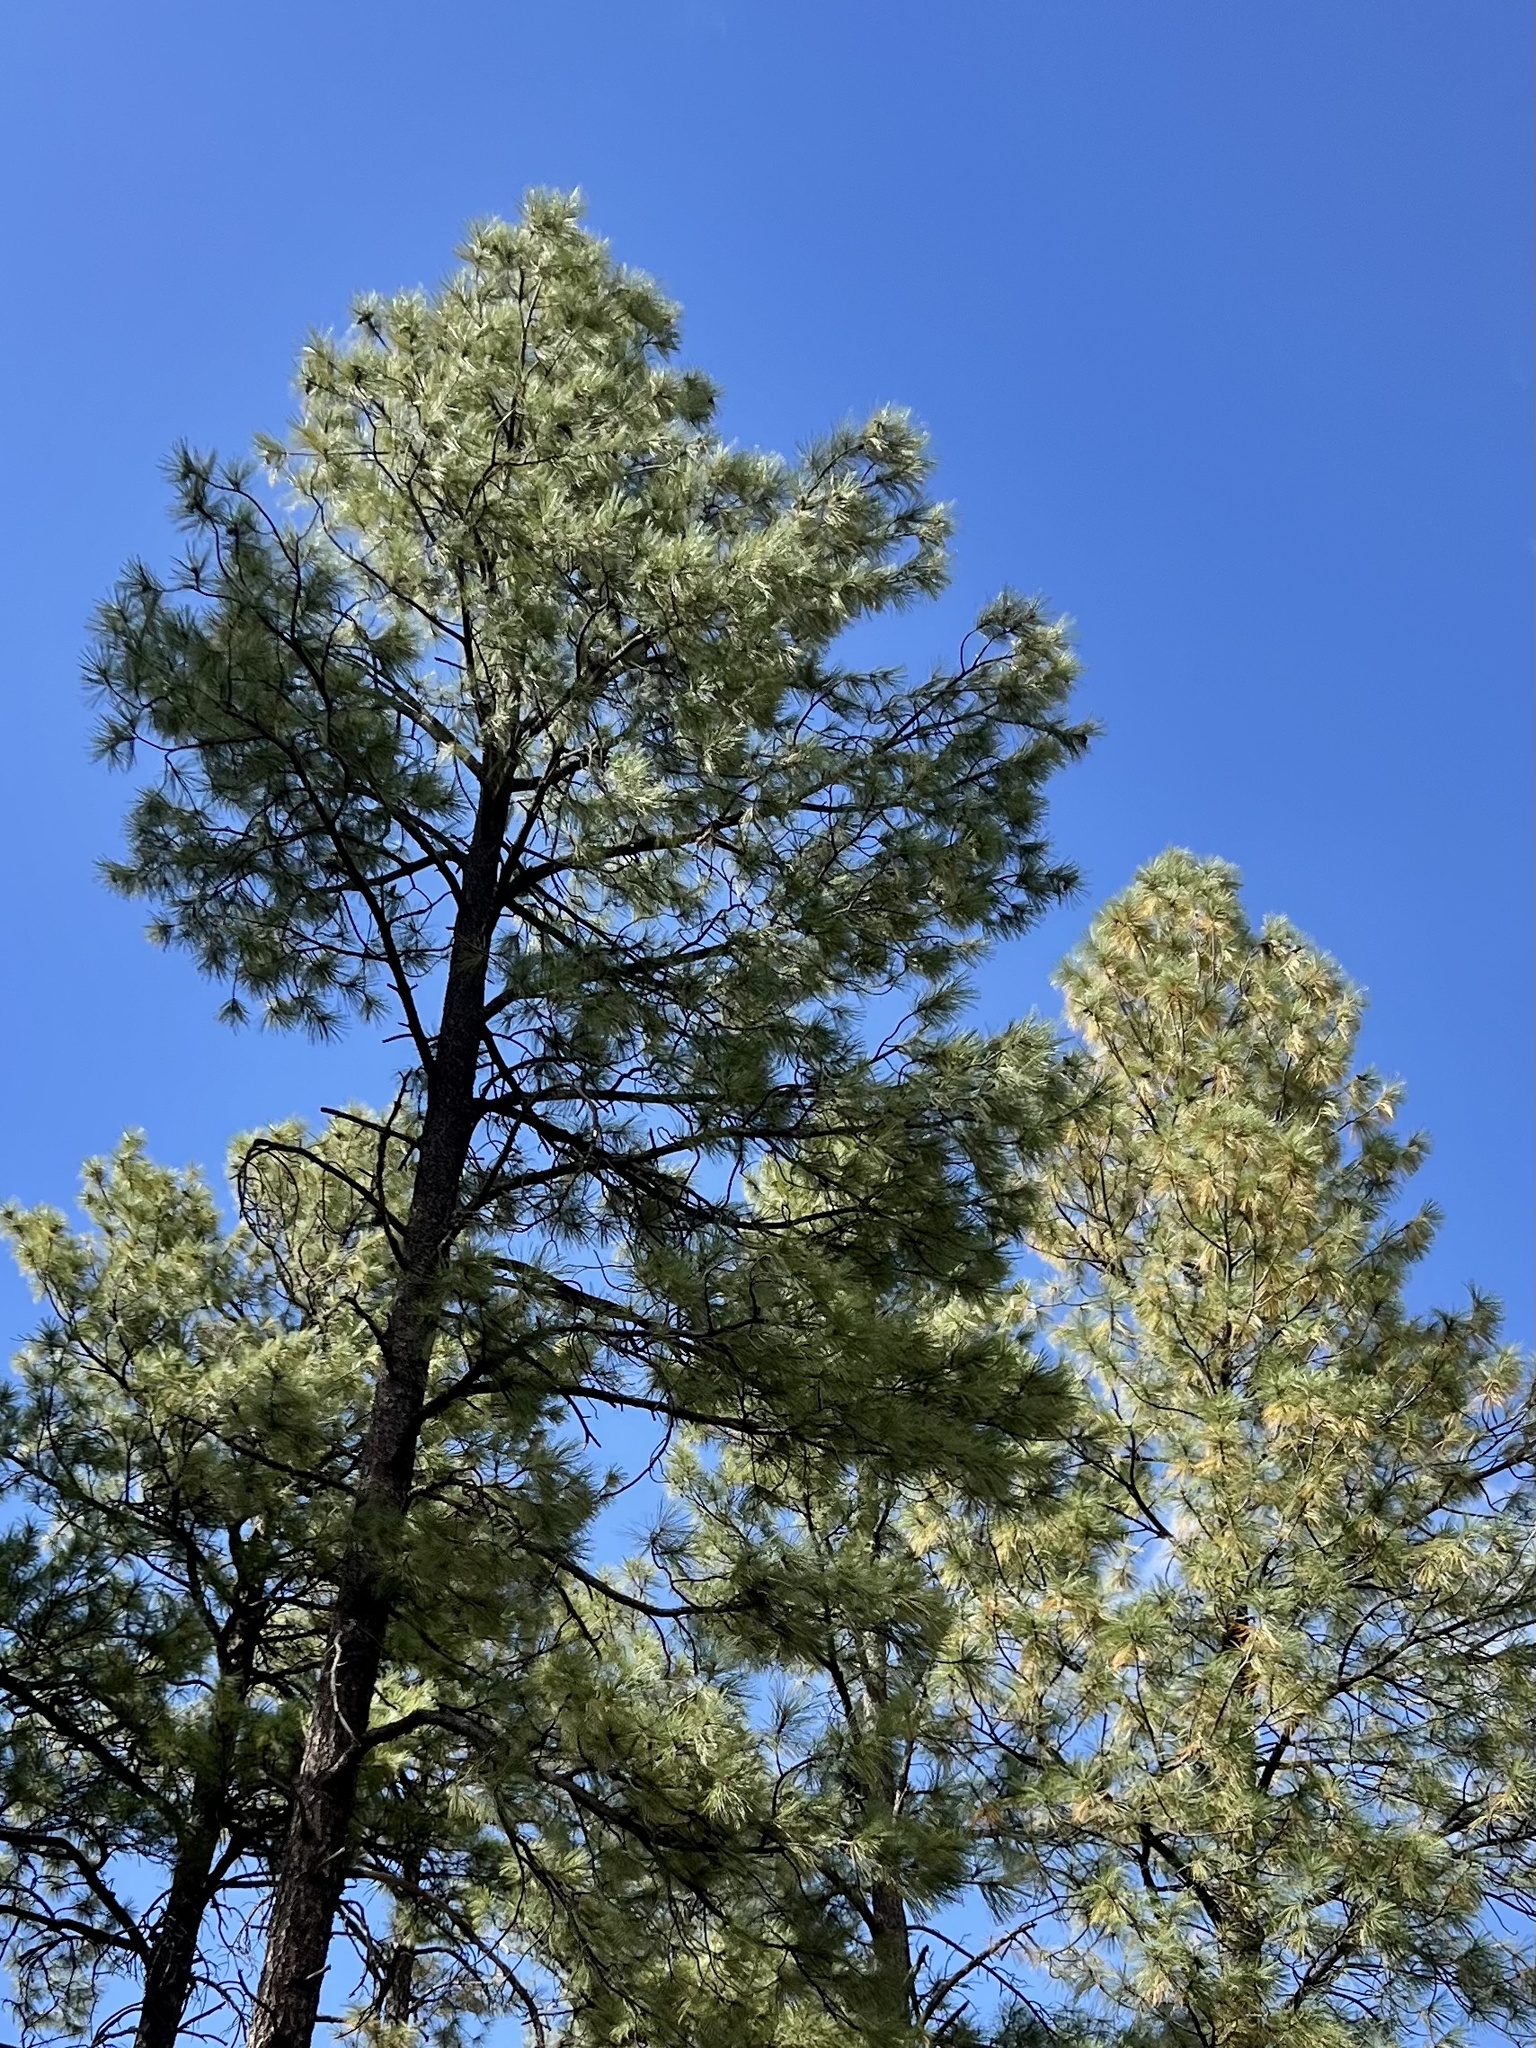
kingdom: Plantae
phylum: Tracheophyta
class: Pinopsida
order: Pinales
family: Pinaceae
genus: Pinus
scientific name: Pinus ponderosa
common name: Western yellow-pine
